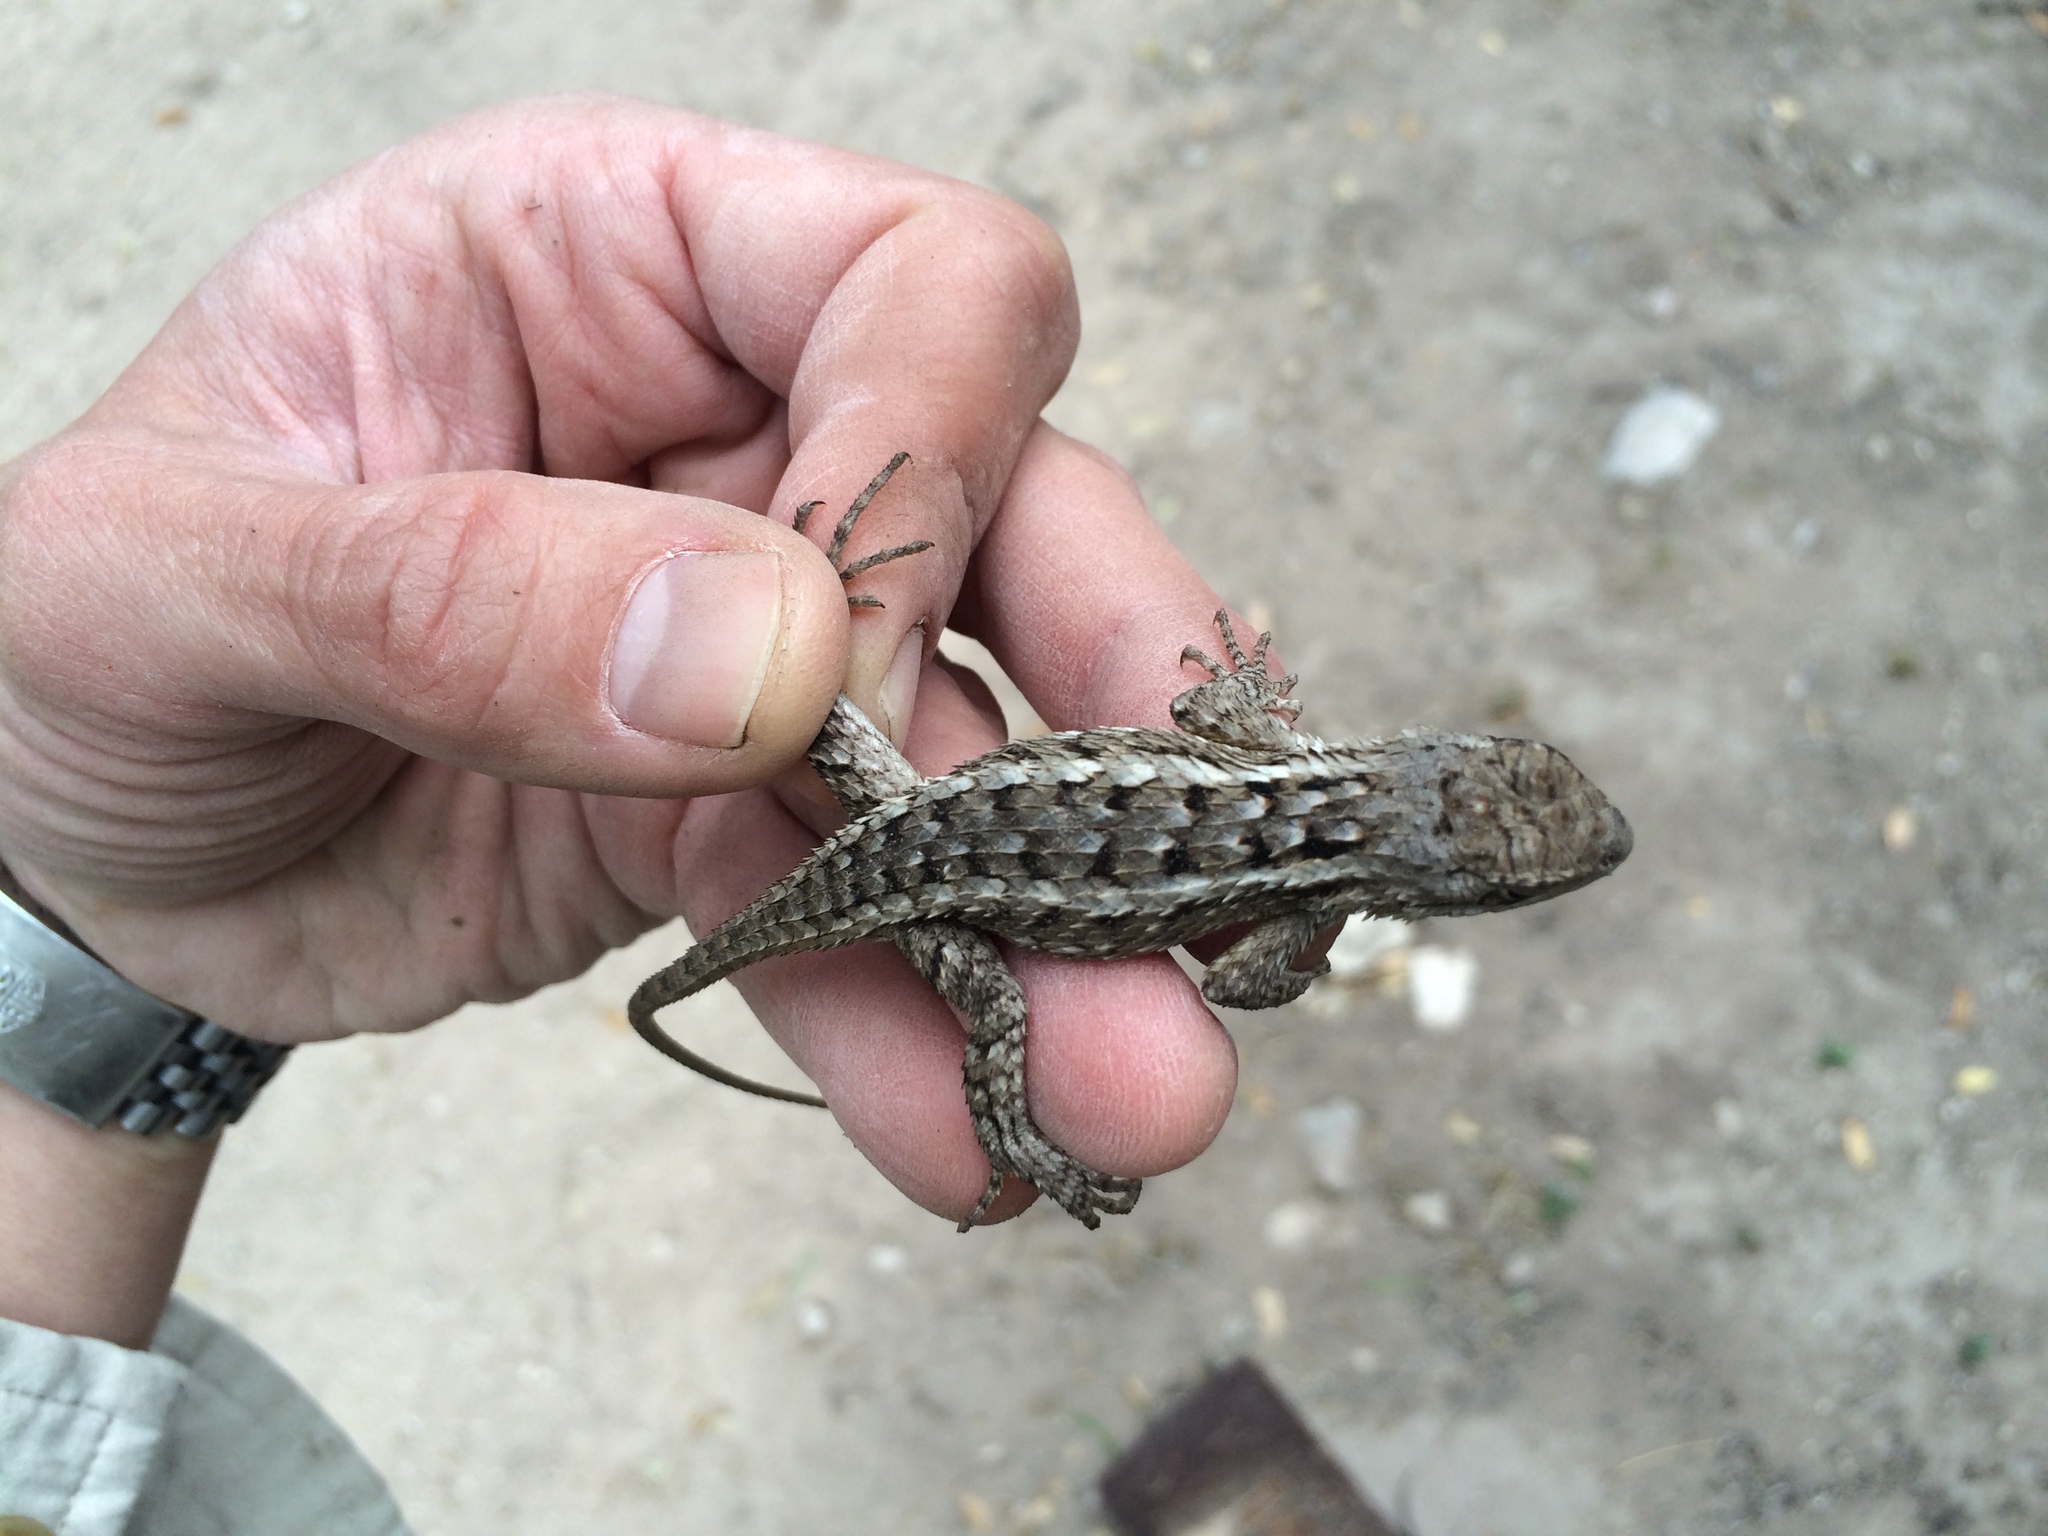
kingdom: Animalia
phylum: Chordata
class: Squamata
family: Phrynosomatidae
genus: Sceloporus
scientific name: Sceloporus olivaceus
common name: Texas spiny lizard
